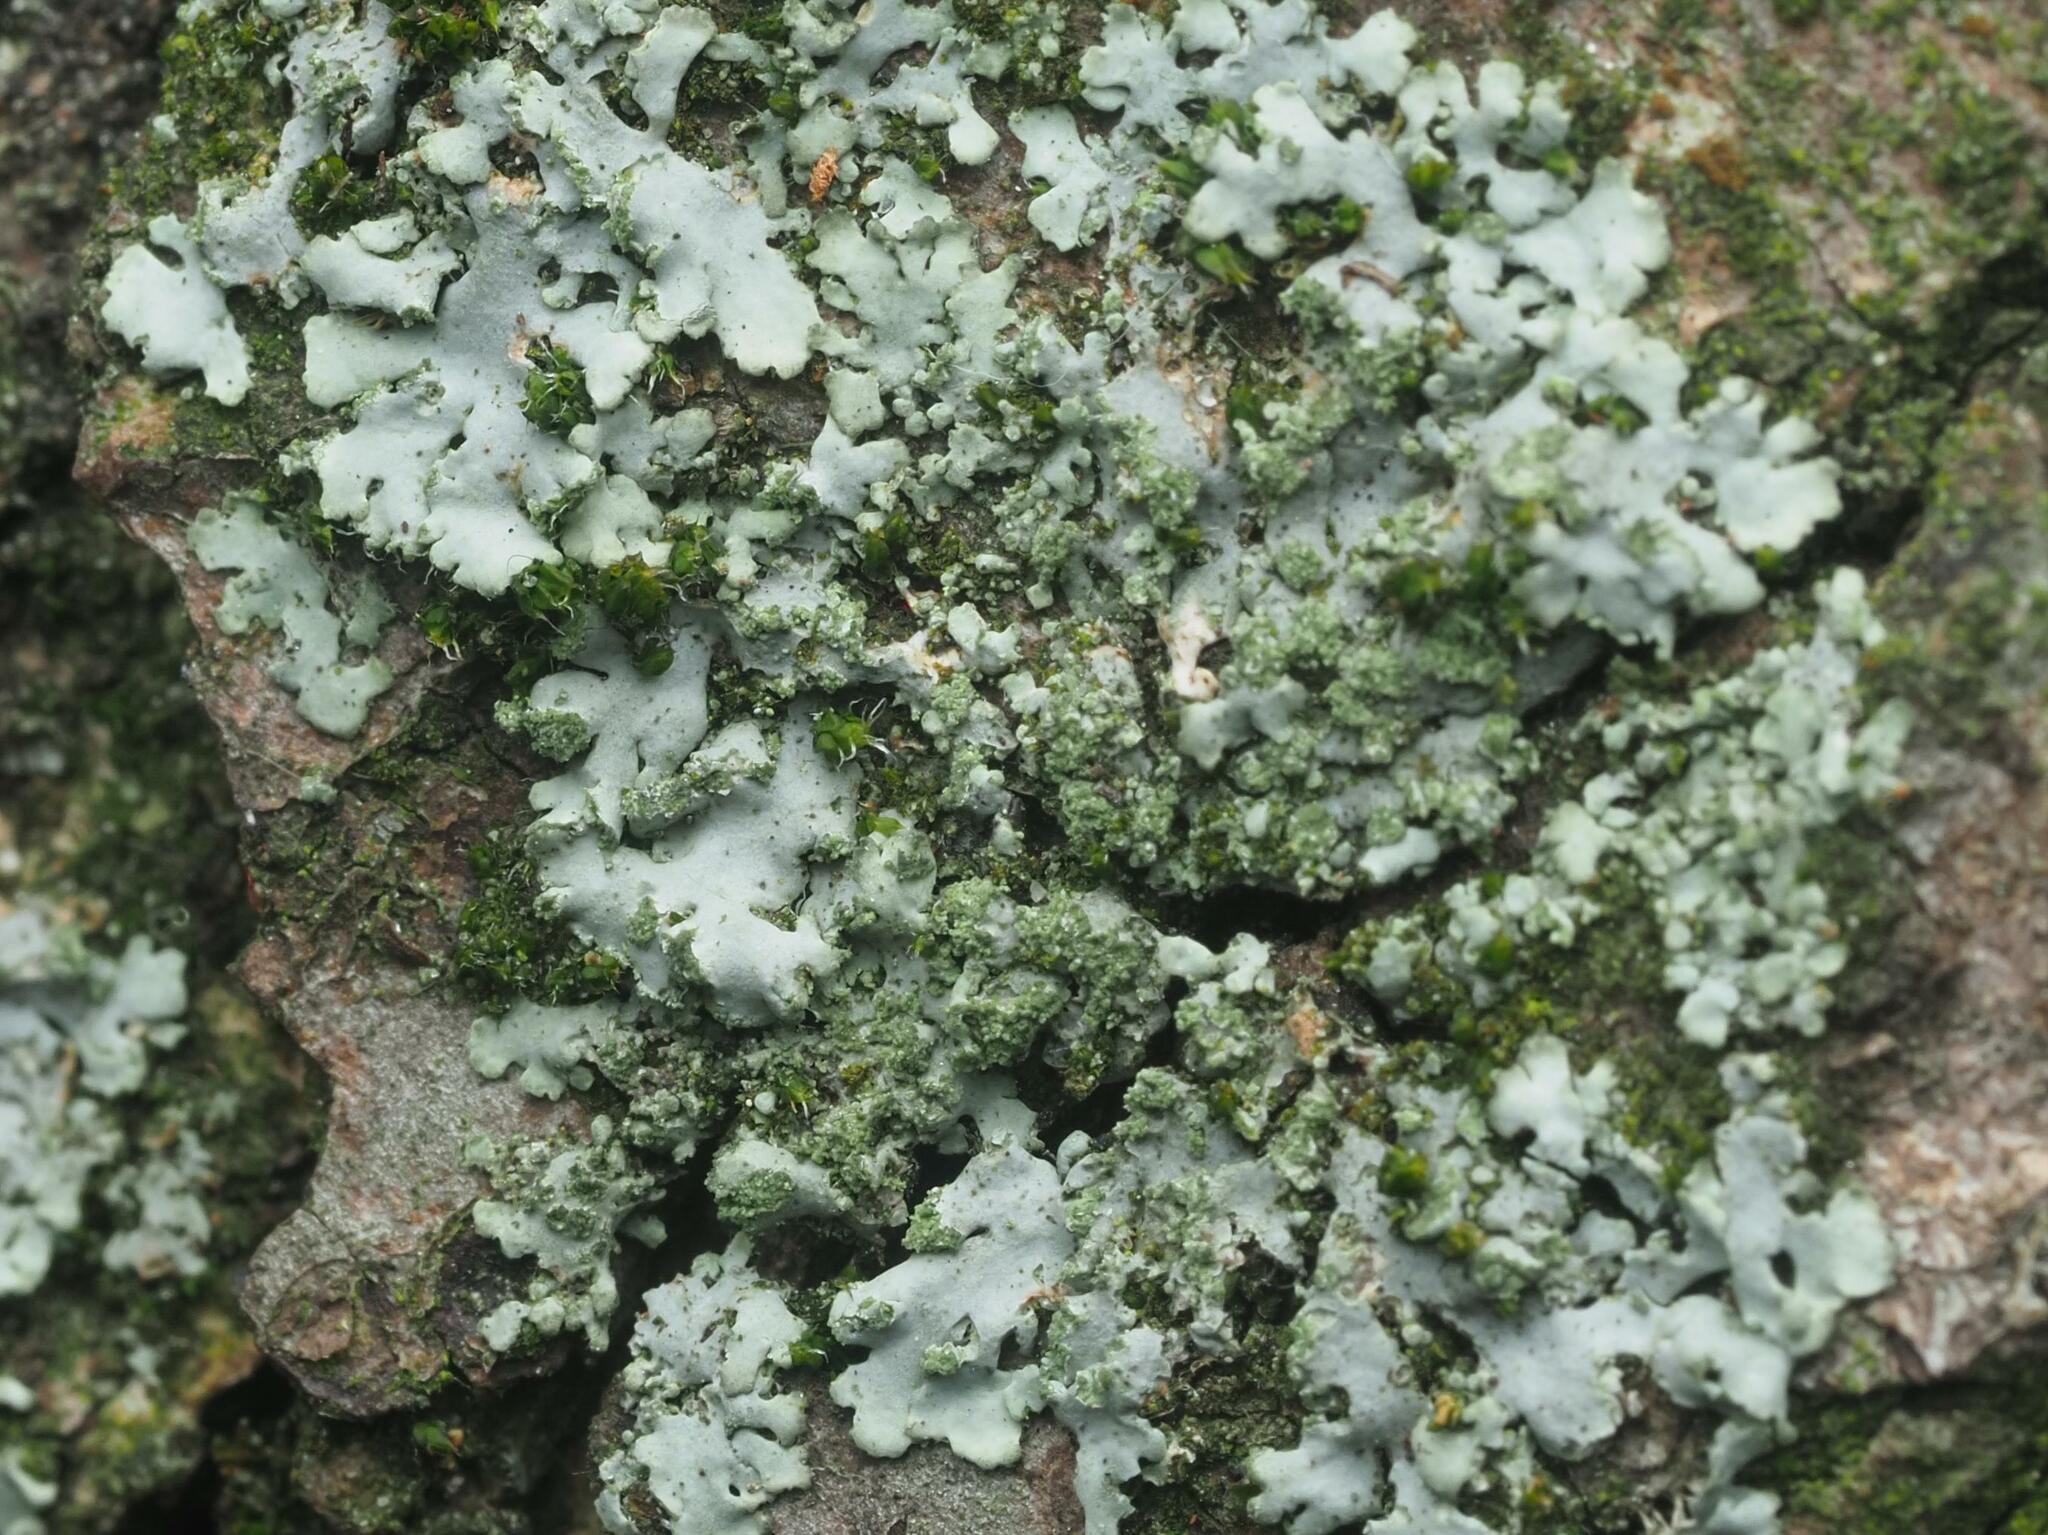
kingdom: Fungi
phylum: Ascomycota
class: Lecanoromycetes
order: Caliciales
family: Physciaceae
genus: Phaeophyscia
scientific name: Phaeophyscia orbicularis
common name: Mealy shadow lichen
